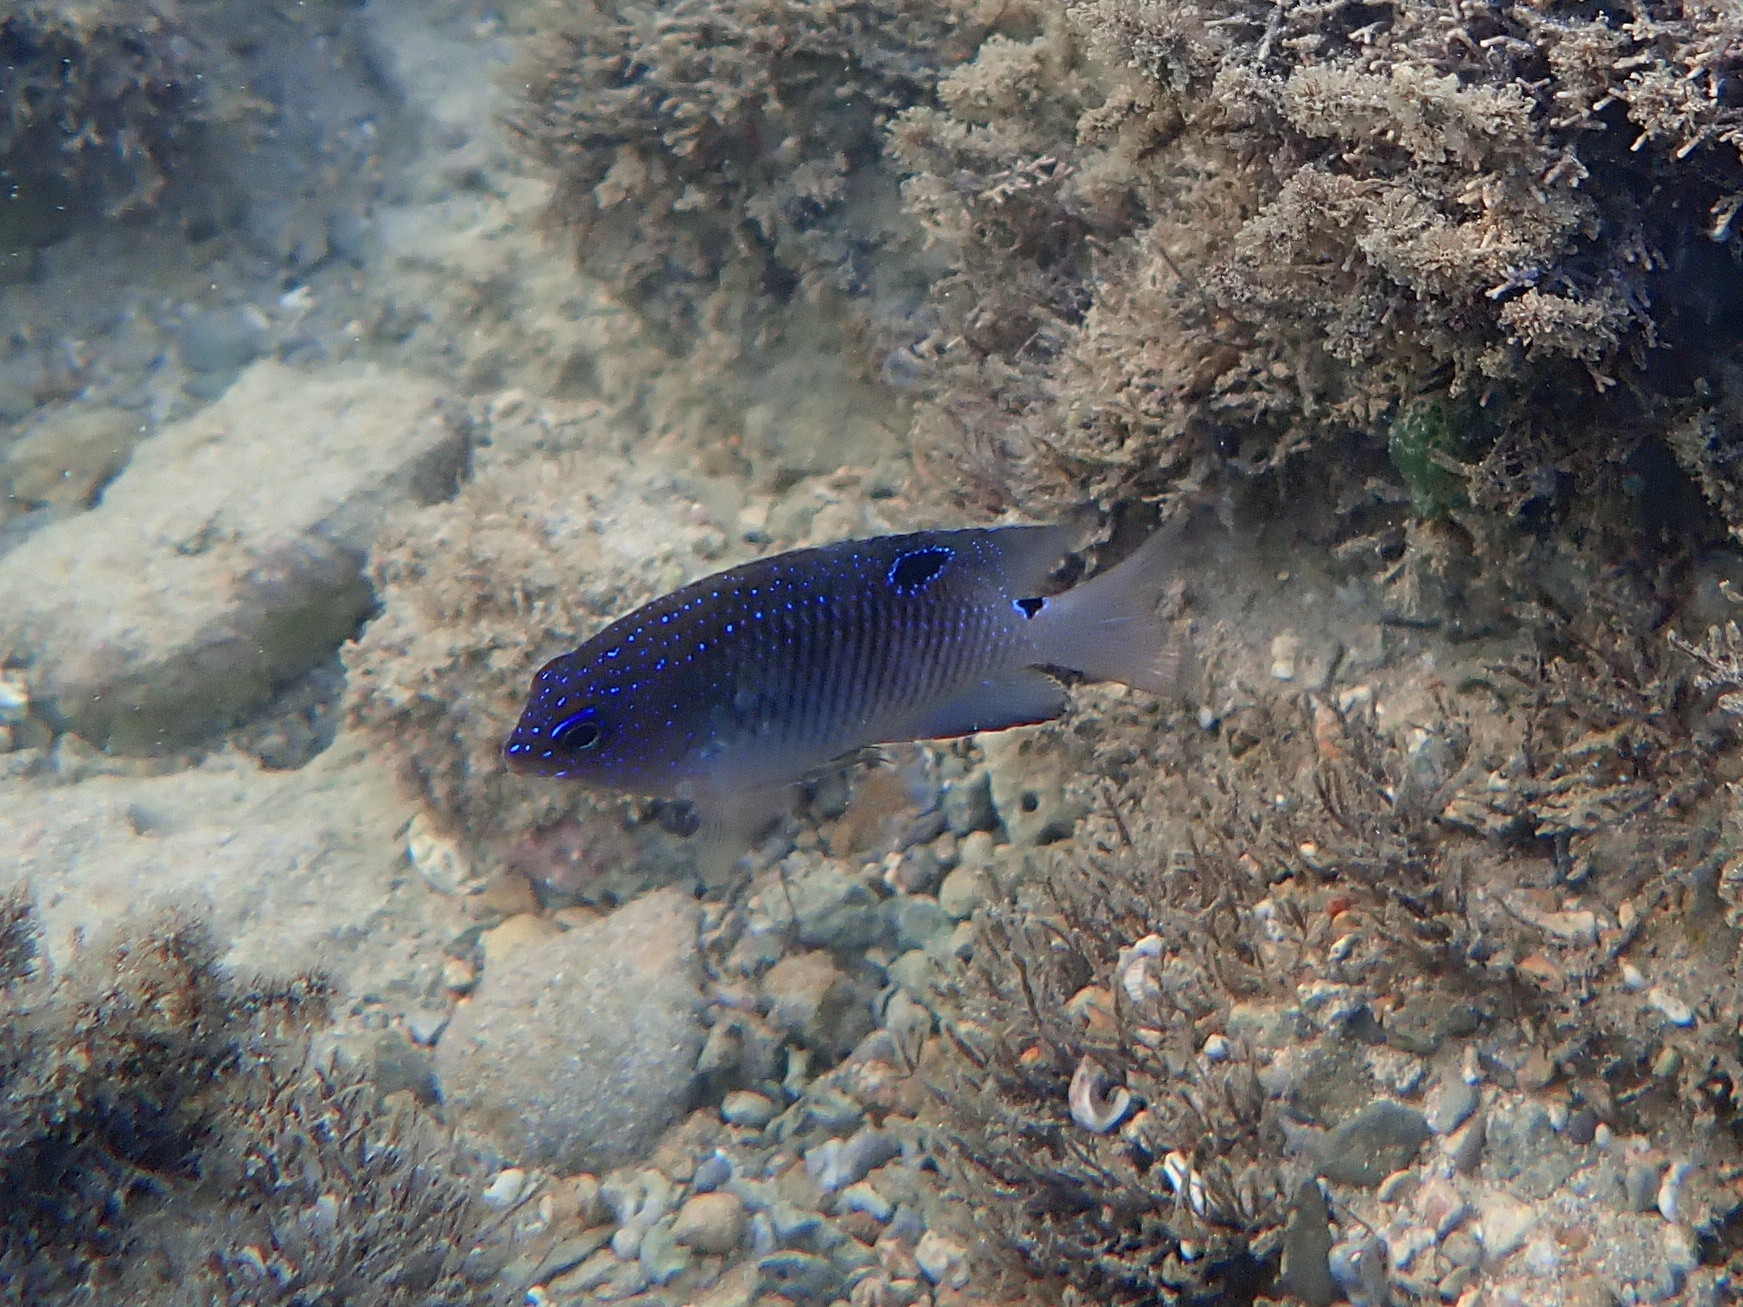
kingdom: Animalia
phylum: Chordata
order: Perciformes
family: Pomacentridae
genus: Stegastes
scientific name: Stegastes fuscus
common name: Brazilian damsel
